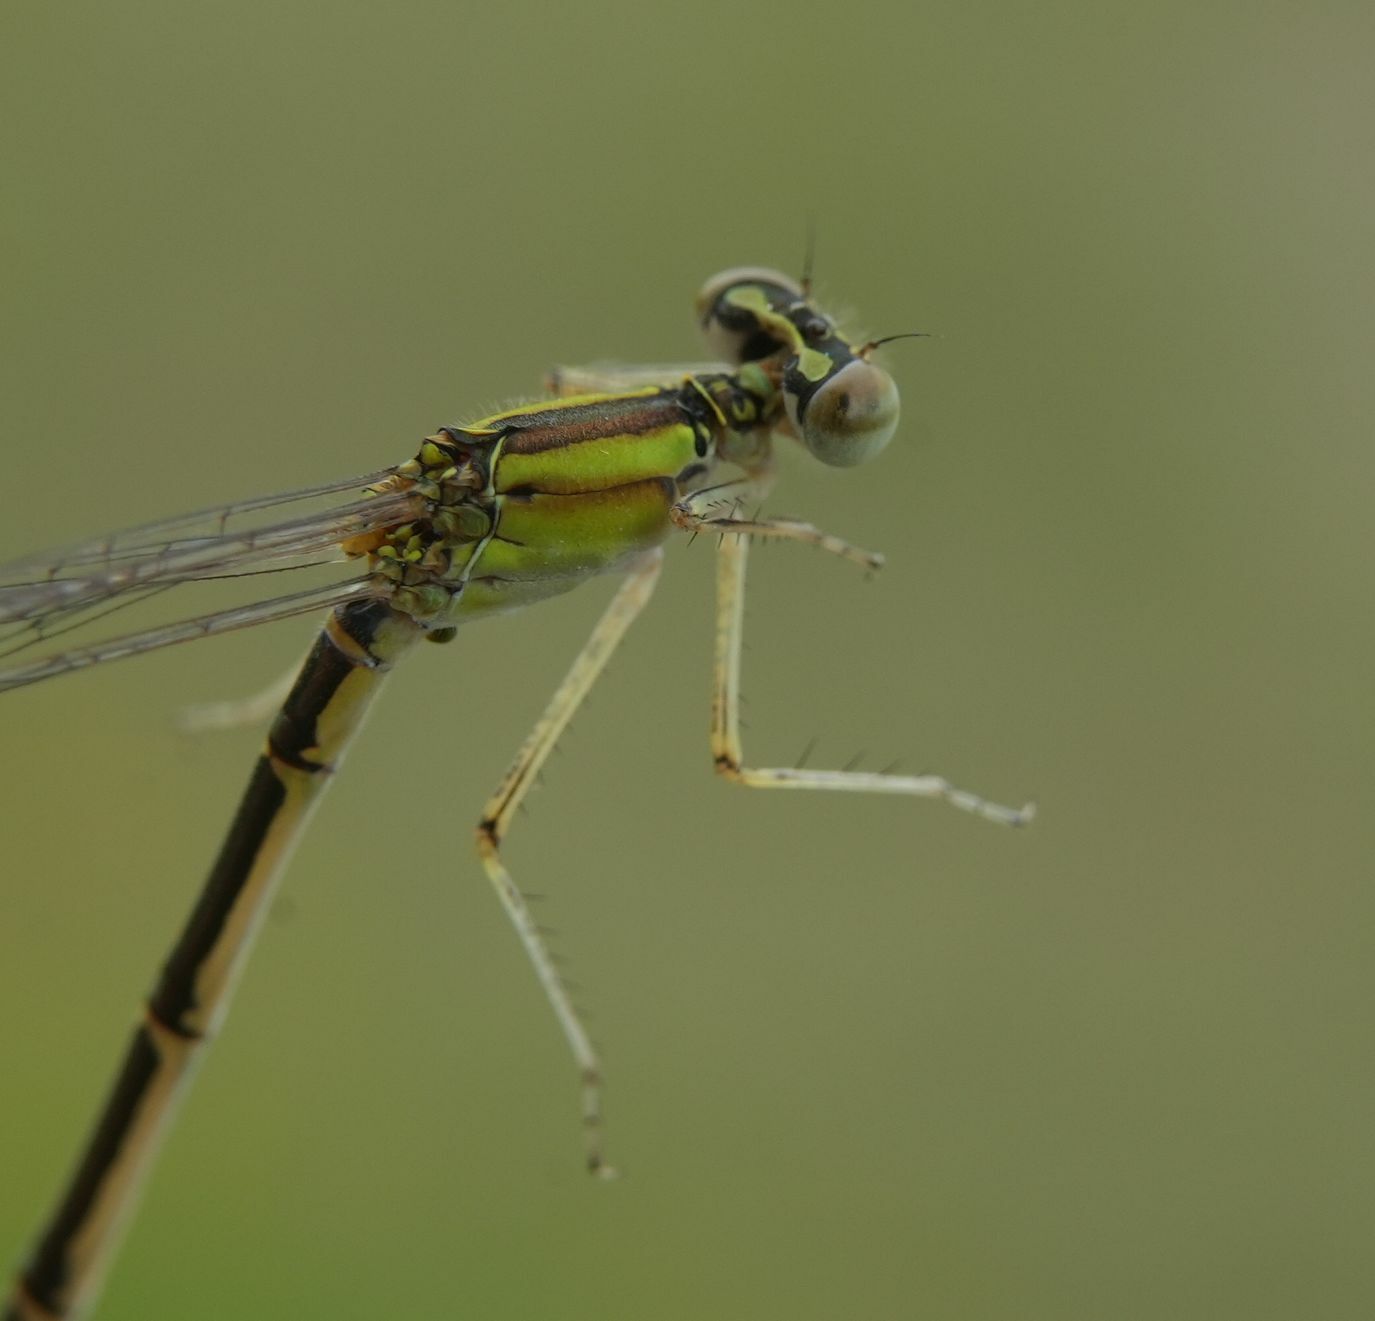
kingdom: Animalia
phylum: Arthropoda
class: Insecta
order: Odonata
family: Coenagrionidae
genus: Enallagma
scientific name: Enallagma vesperum
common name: Vesper bluet
